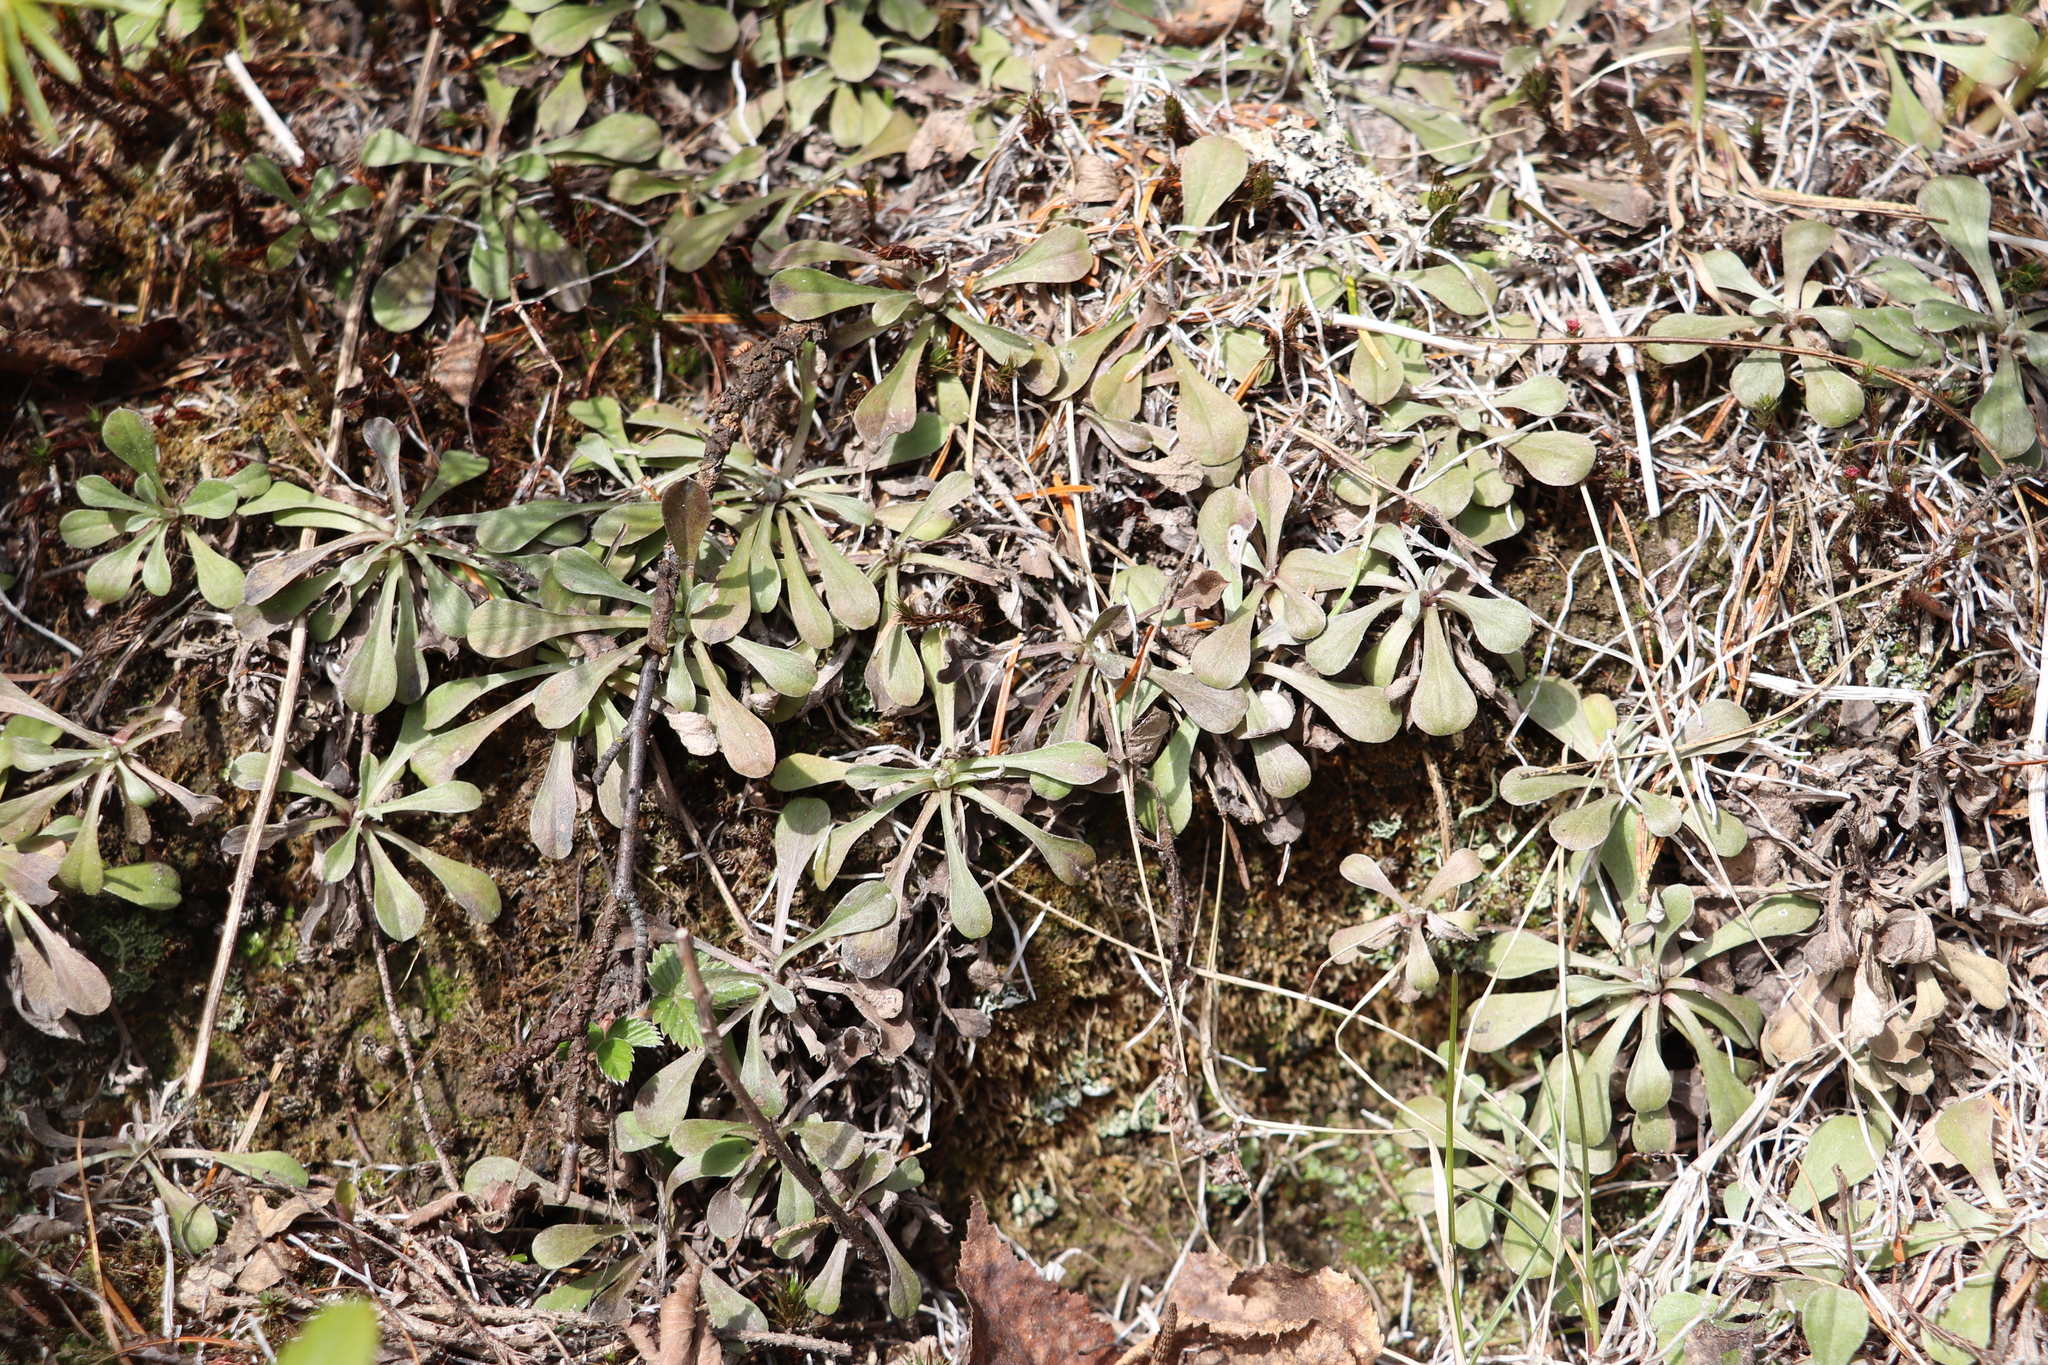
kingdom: Plantae
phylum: Tracheophyta
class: Magnoliopsida
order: Asterales
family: Asteraceae
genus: Antennaria
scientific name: Antennaria dioica
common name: Mountain everlasting
